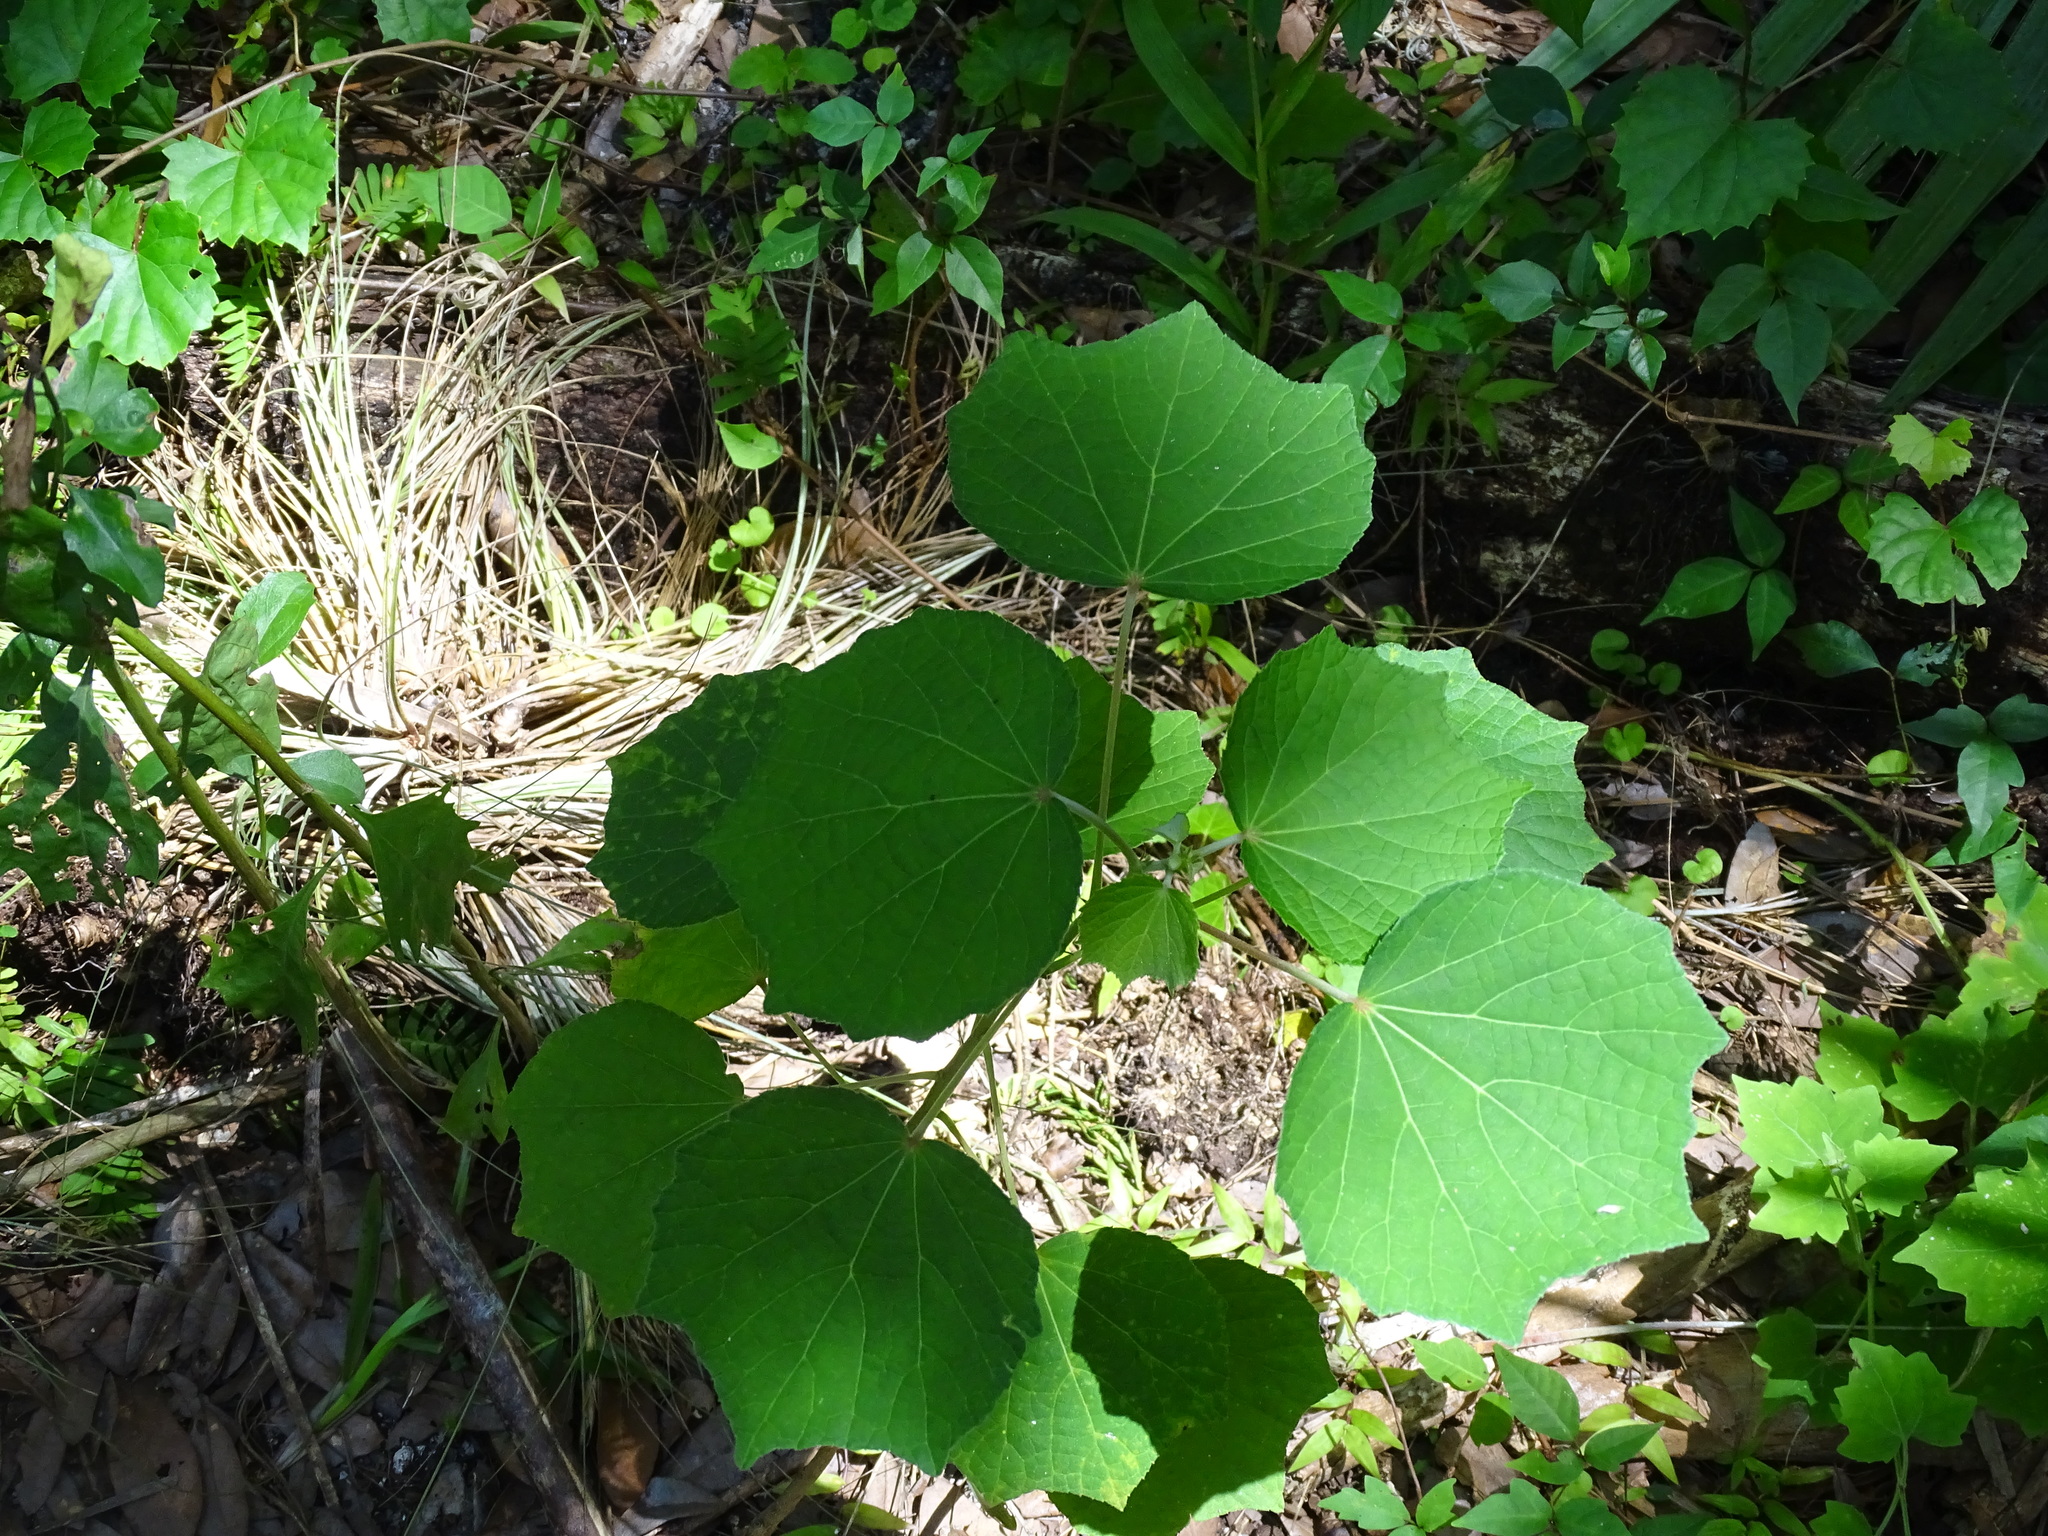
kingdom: Plantae
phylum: Tracheophyta
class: Magnoliopsida
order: Malvales
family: Malvaceae
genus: Urena
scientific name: Urena lobata
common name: Caesarweed
